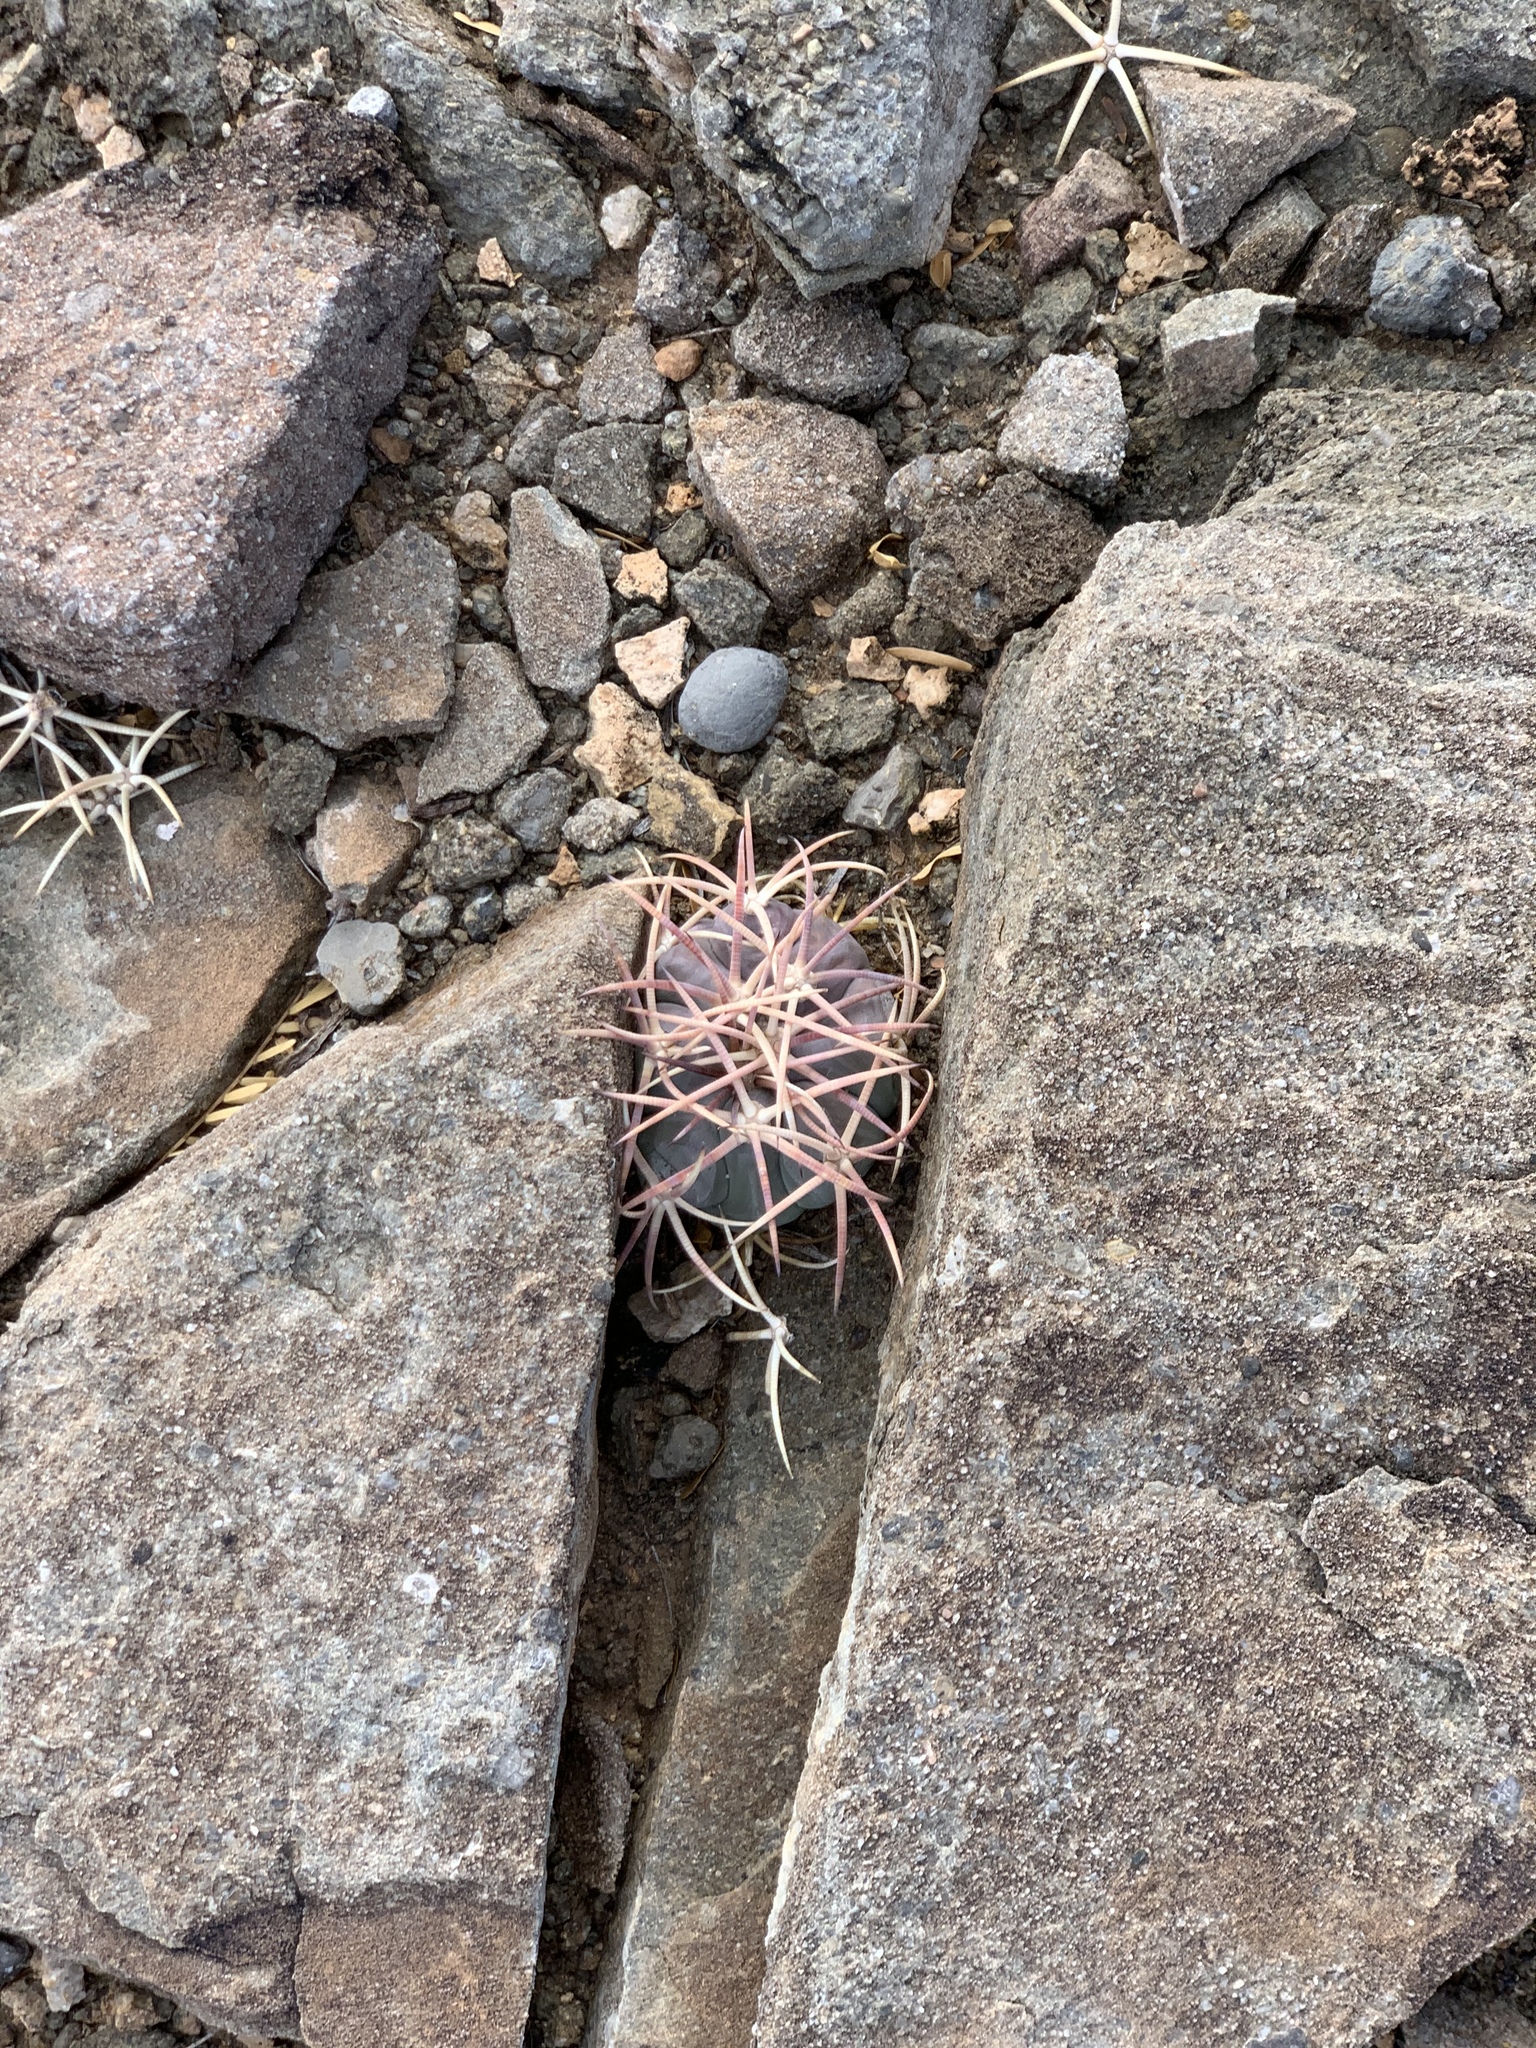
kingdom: Plantae
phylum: Tracheophyta
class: Magnoliopsida
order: Caryophyllales
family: Cactaceae
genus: Echinocactus
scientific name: Echinocactus horizonthalonius
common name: Devilshead
